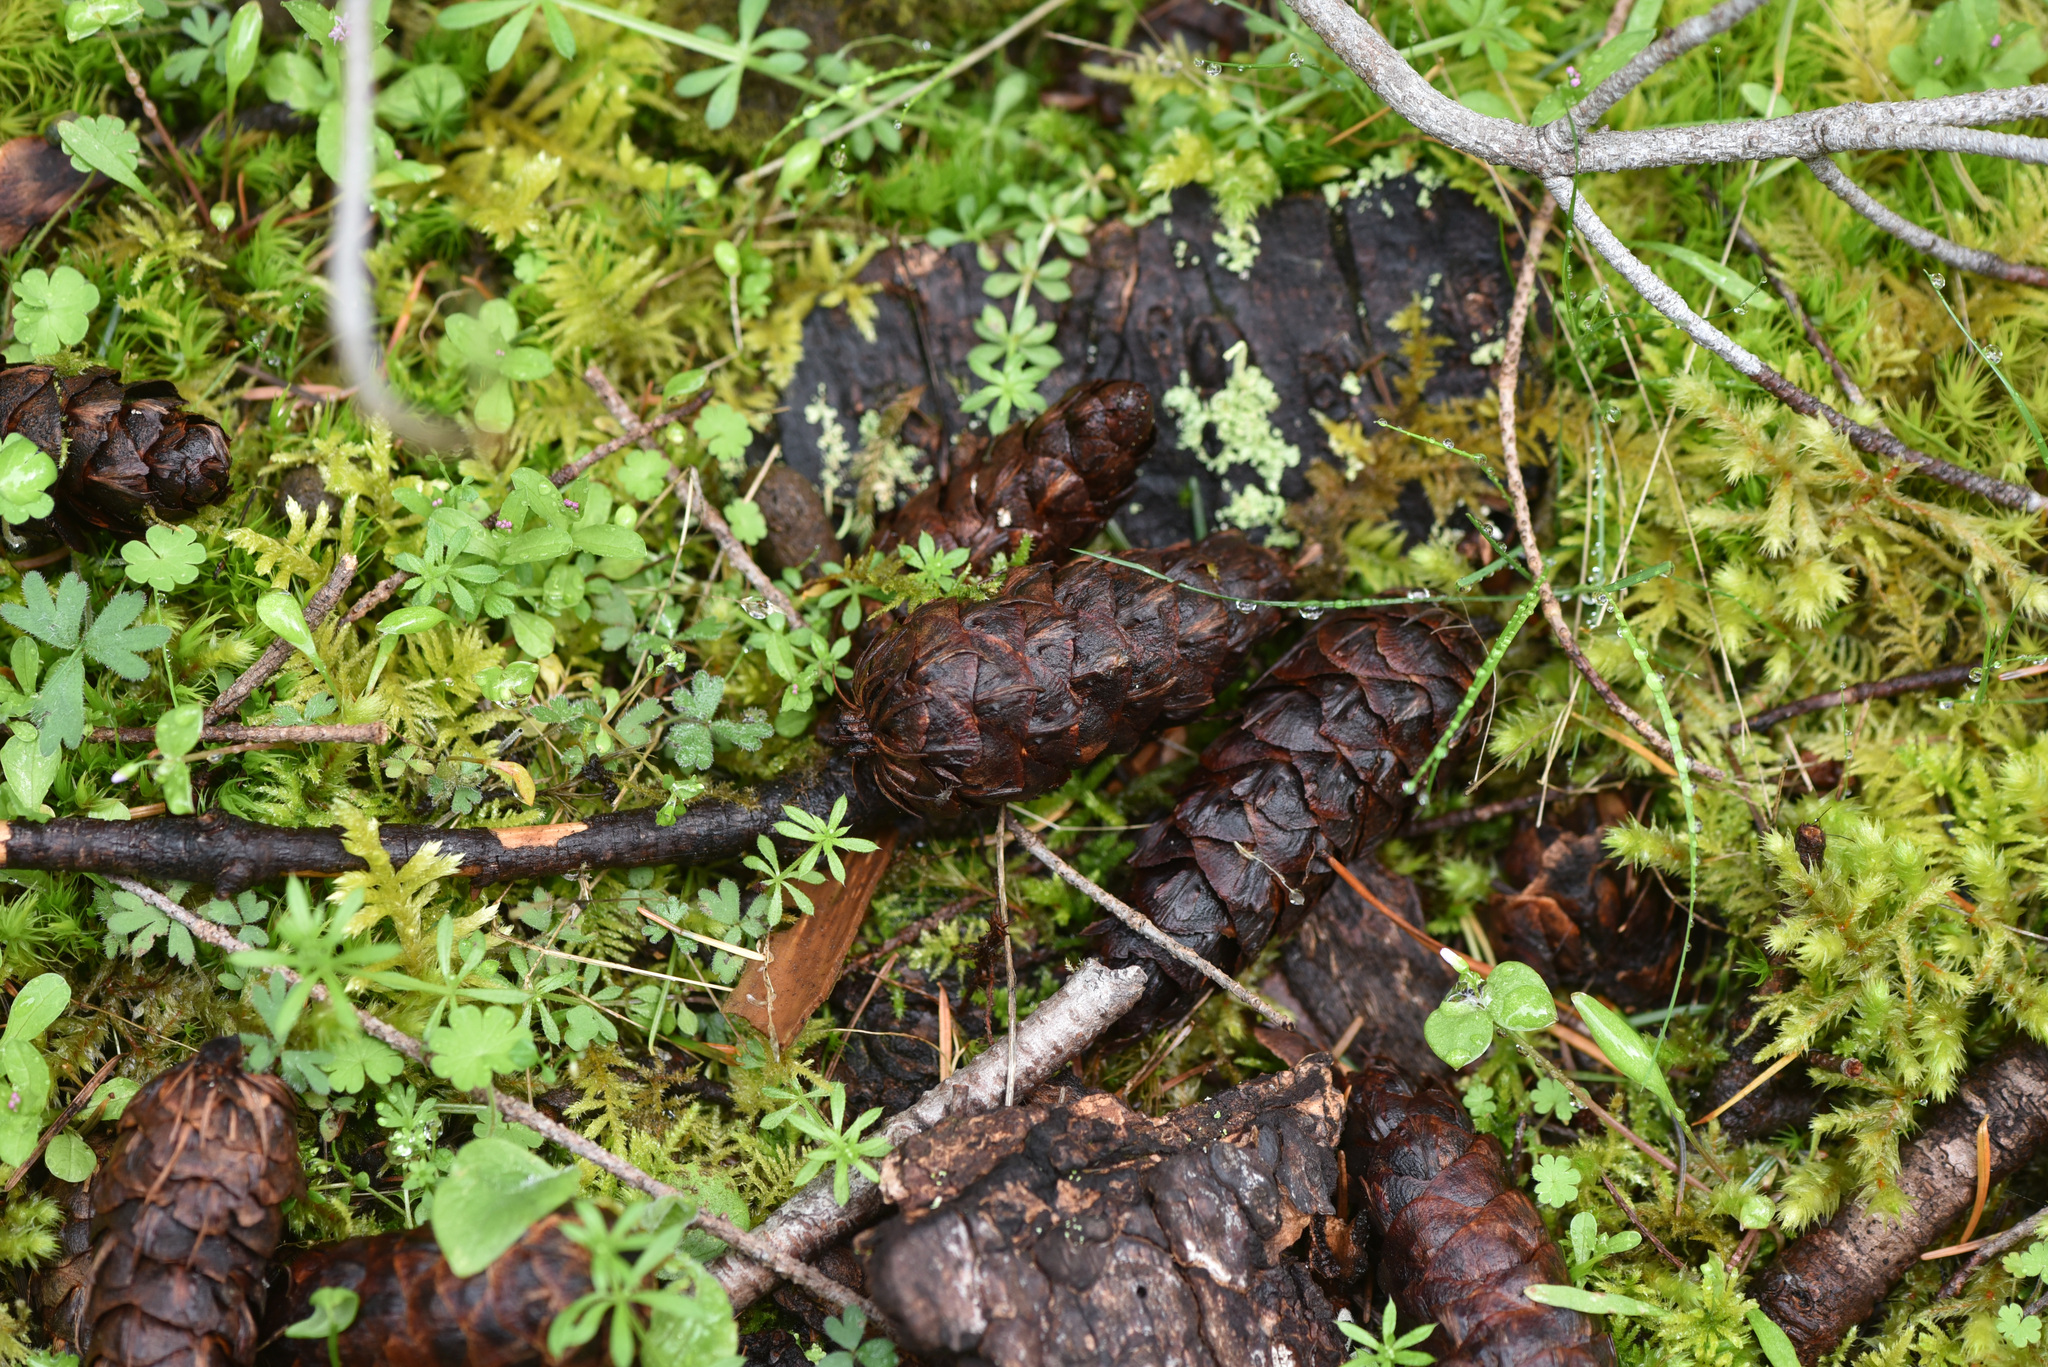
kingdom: Plantae
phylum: Tracheophyta
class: Pinopsida
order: Pinales
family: Pinaceae
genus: Pseudotsuga
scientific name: Pseudotsuga menziesii
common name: Douglas fir
